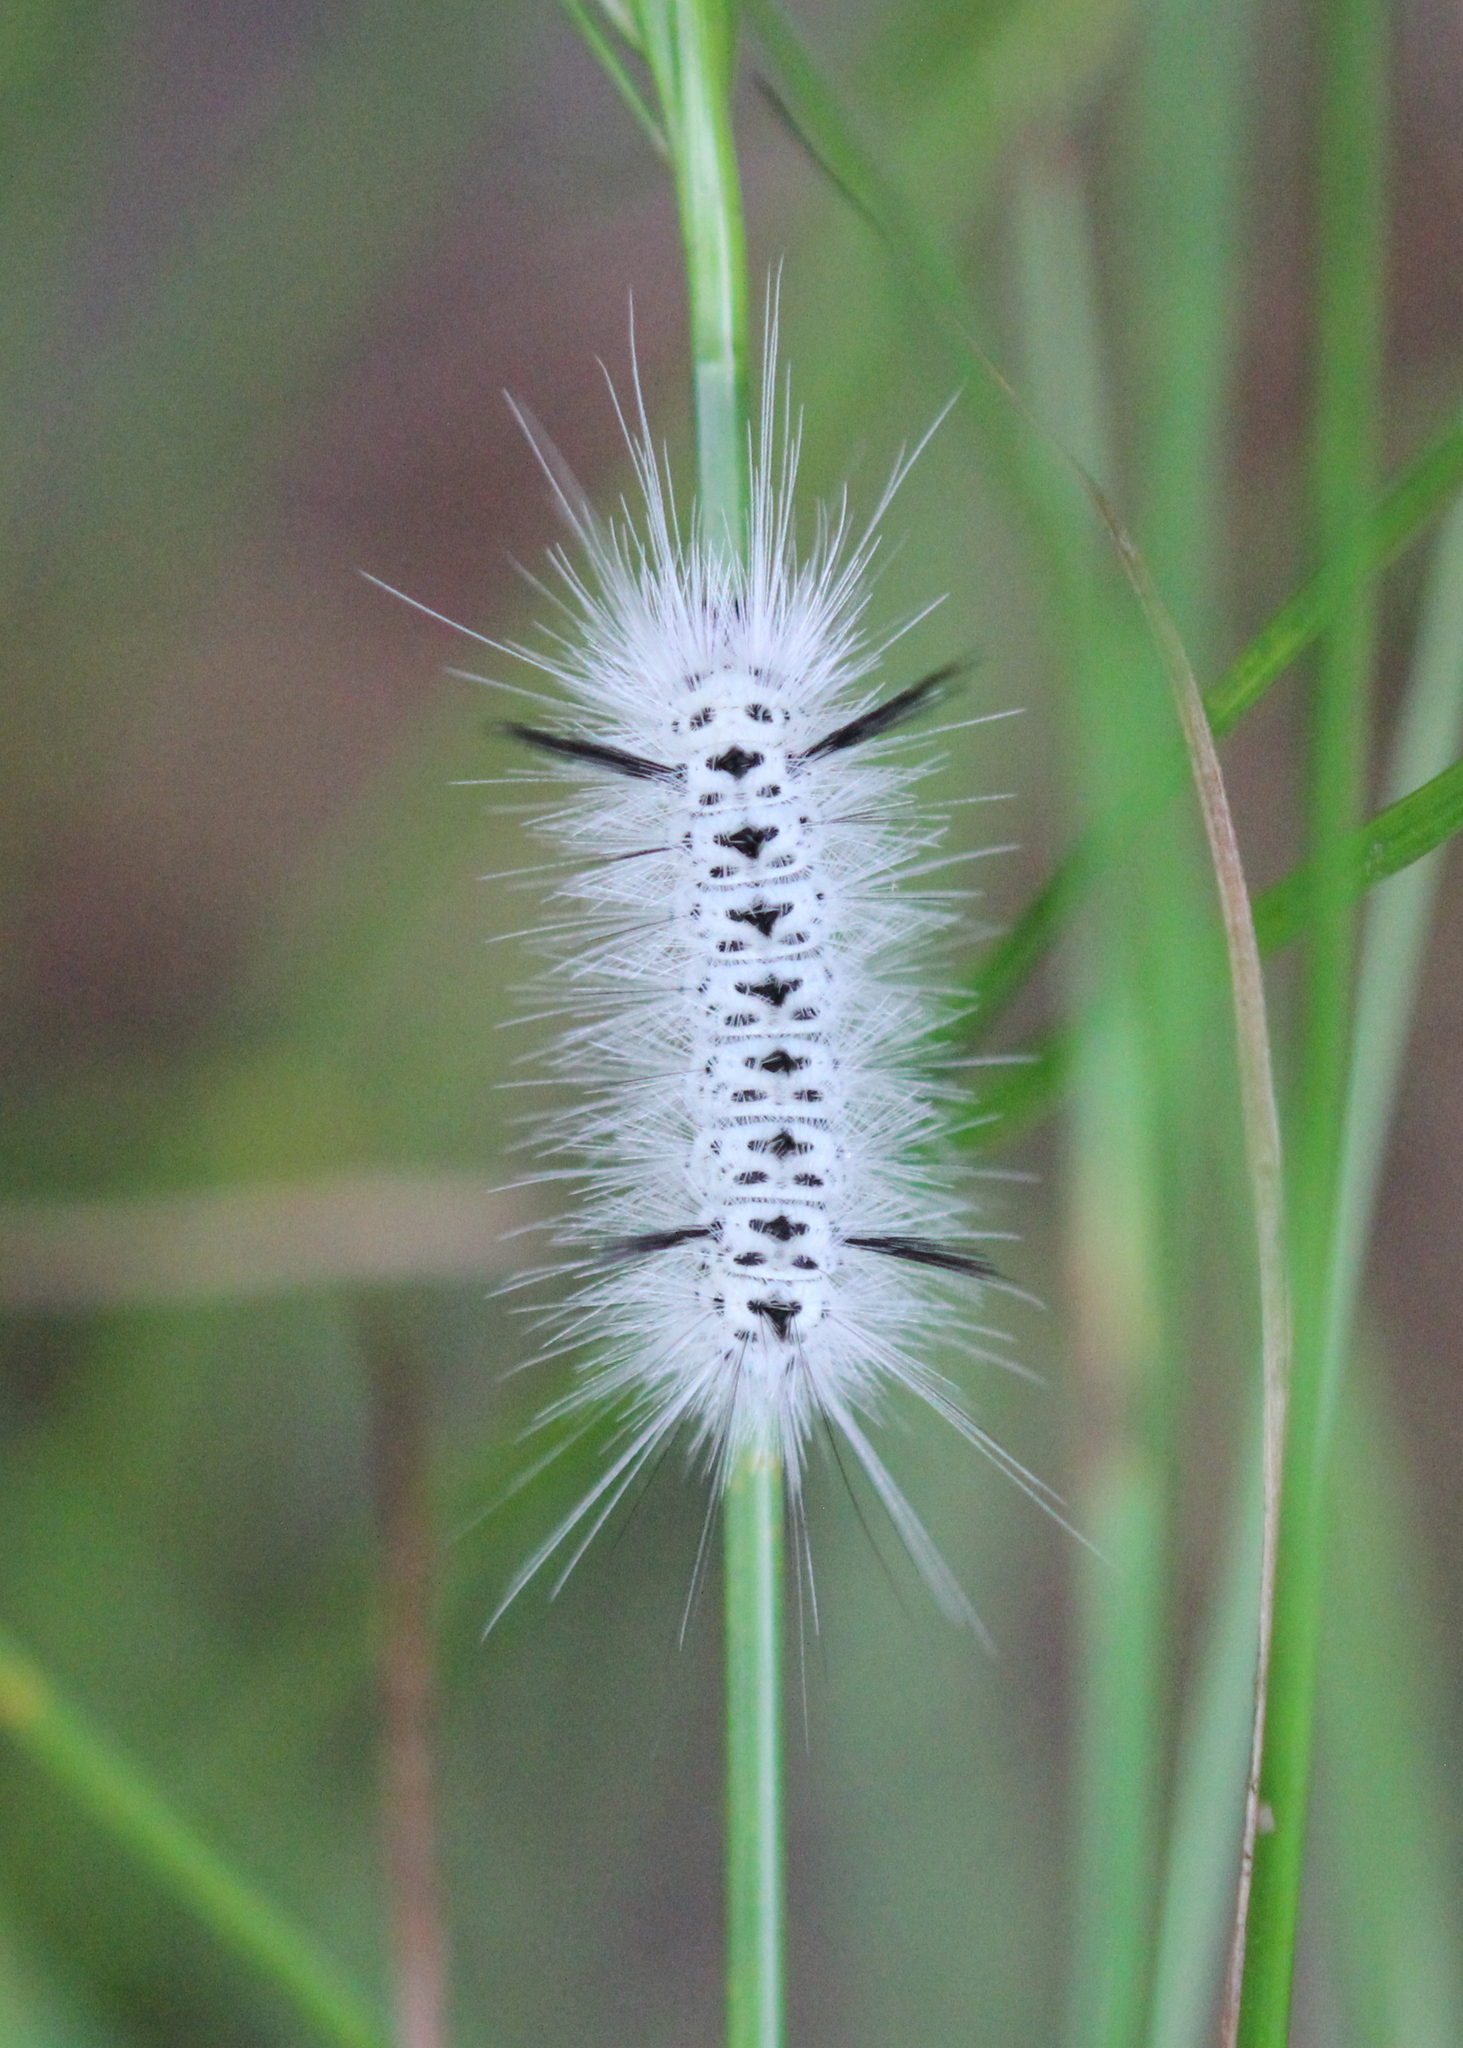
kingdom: Animalia
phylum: Arthropoda
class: Insecta
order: Lepidoptera
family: Erebidae
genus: Lophocampa
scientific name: Lophocampa caryae
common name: Hickory tussock moth
